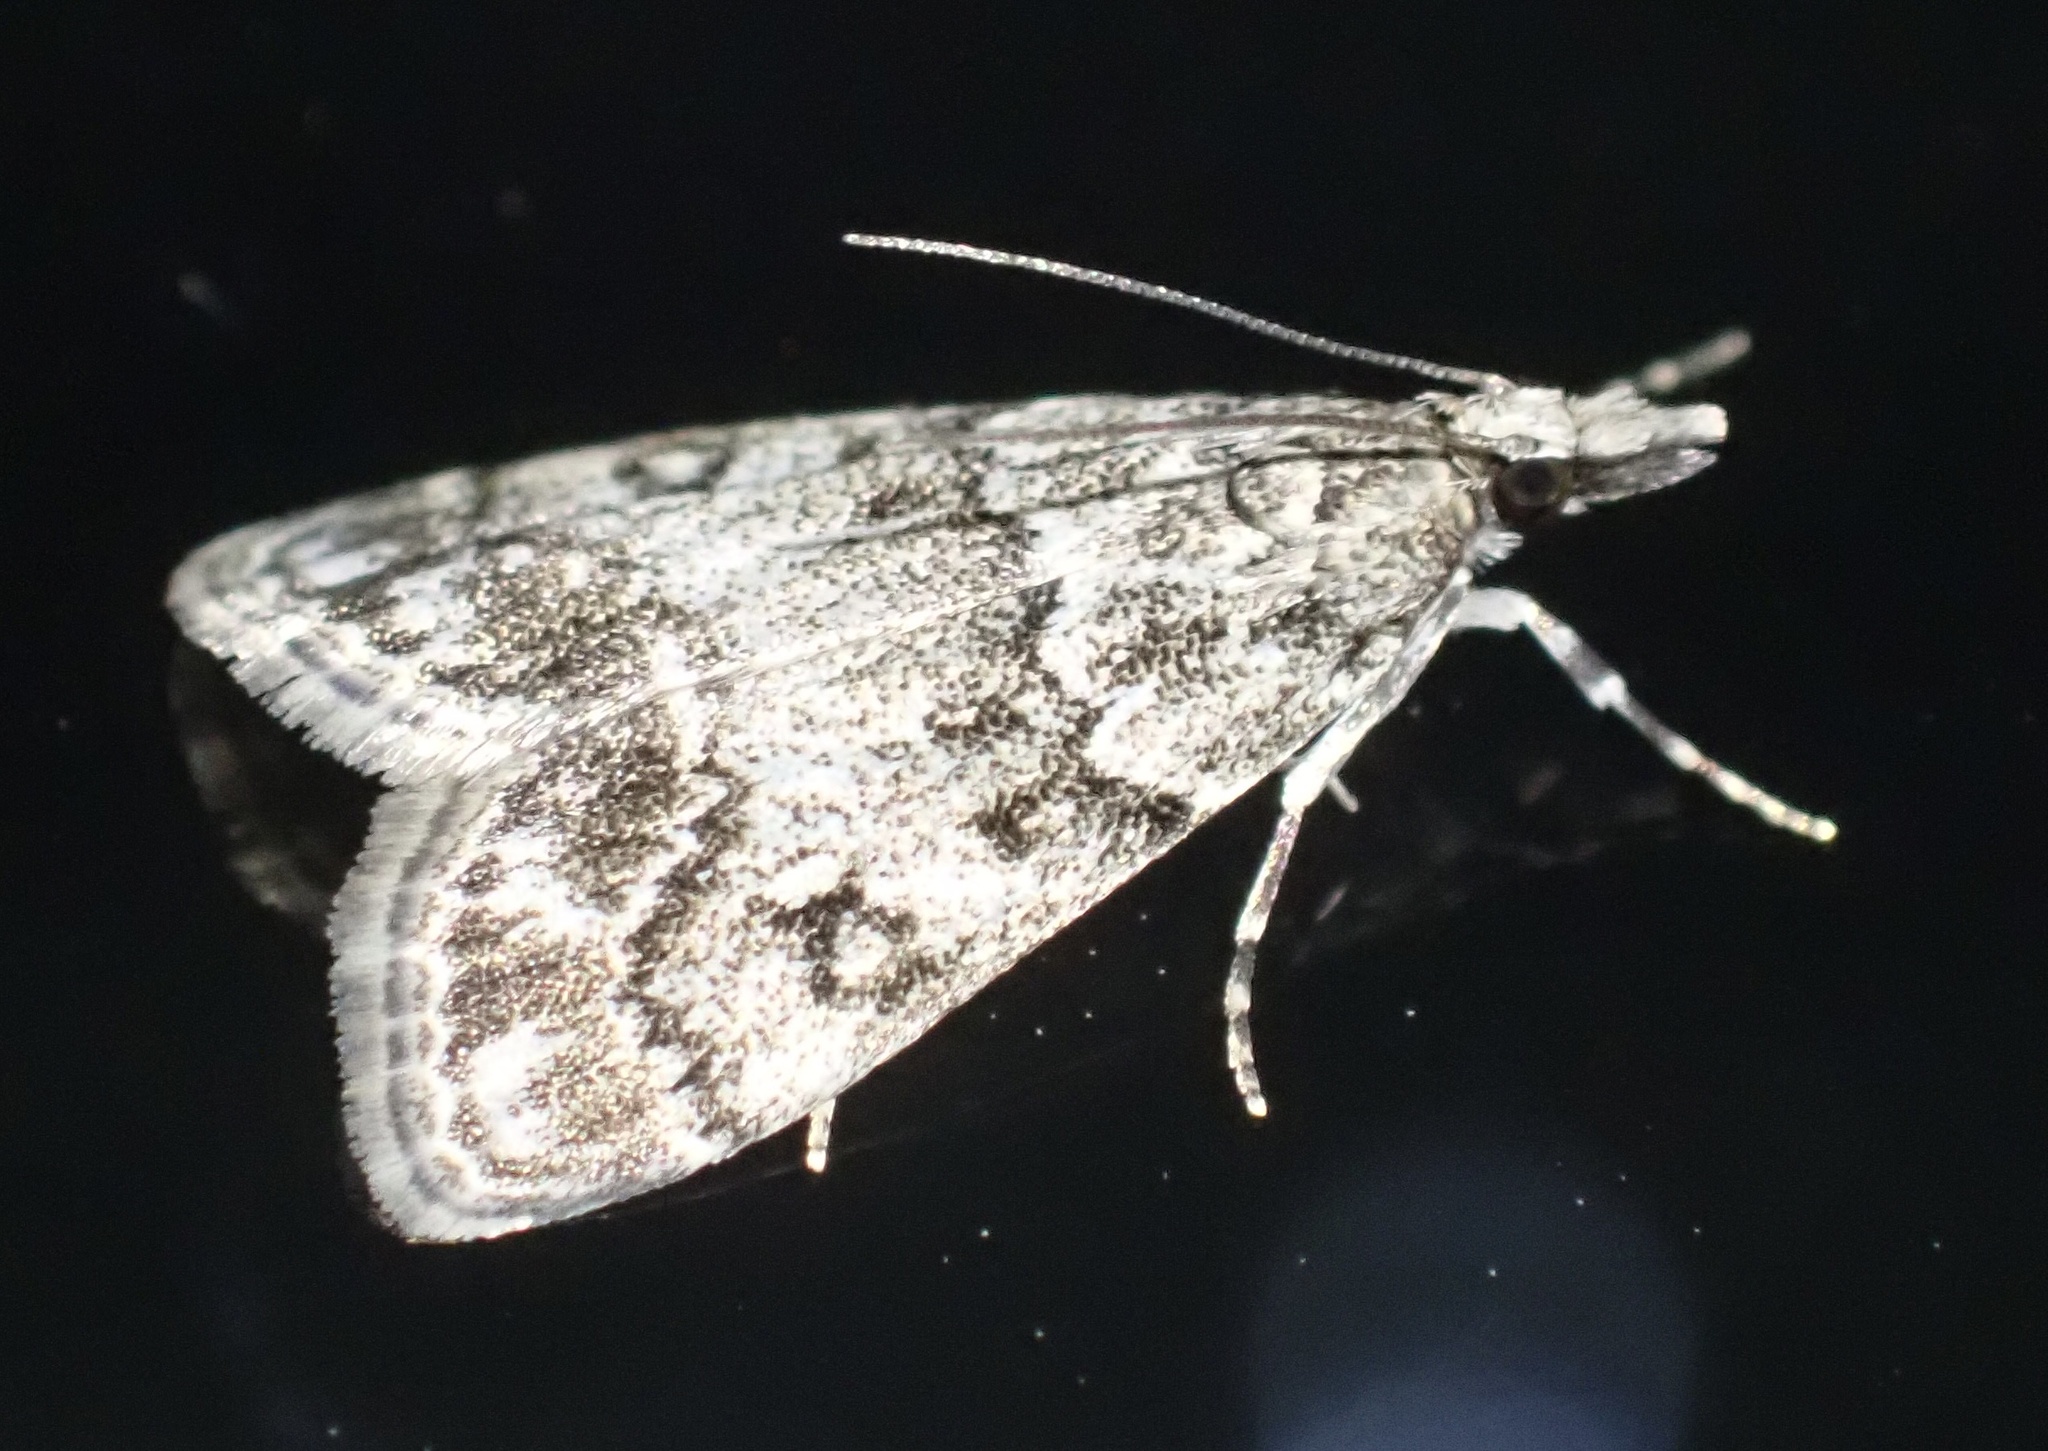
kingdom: Animalia
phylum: Arthropoda
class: Insecta
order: Lepidoptera
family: Crambidae
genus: Eudonia
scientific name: Eudonia lacustrata
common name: Little grey
